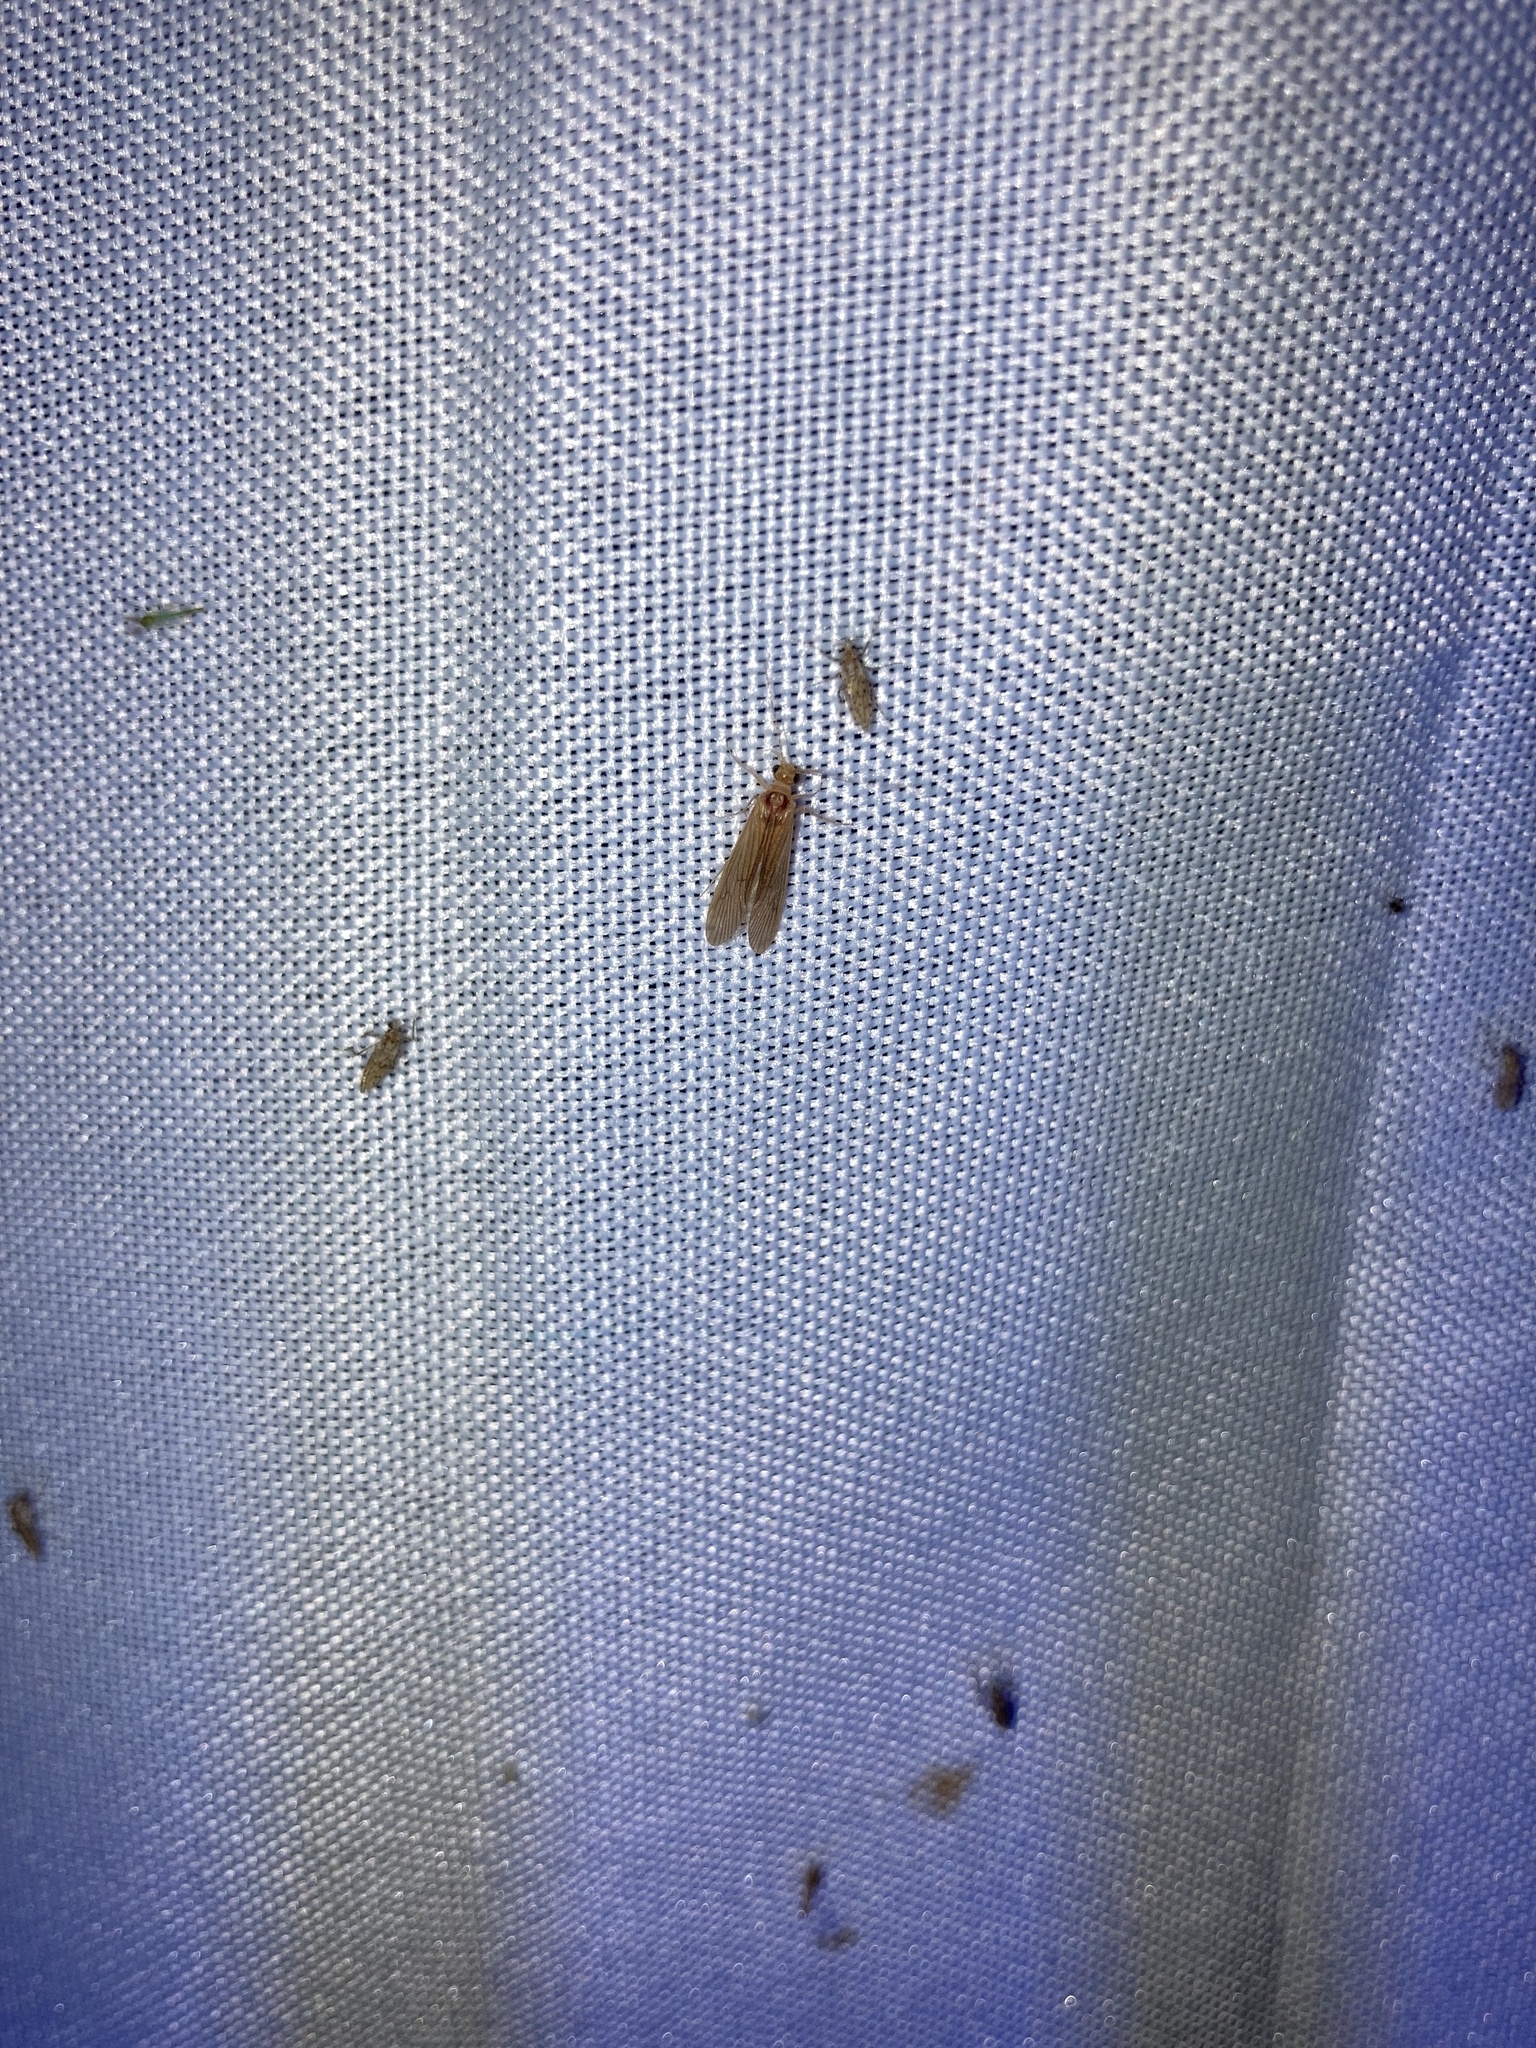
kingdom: Animalia
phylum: Arthropoda
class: Insecta
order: Trichoptera
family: Hydropsychidae
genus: Potamyia
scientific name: Potamyia flava
